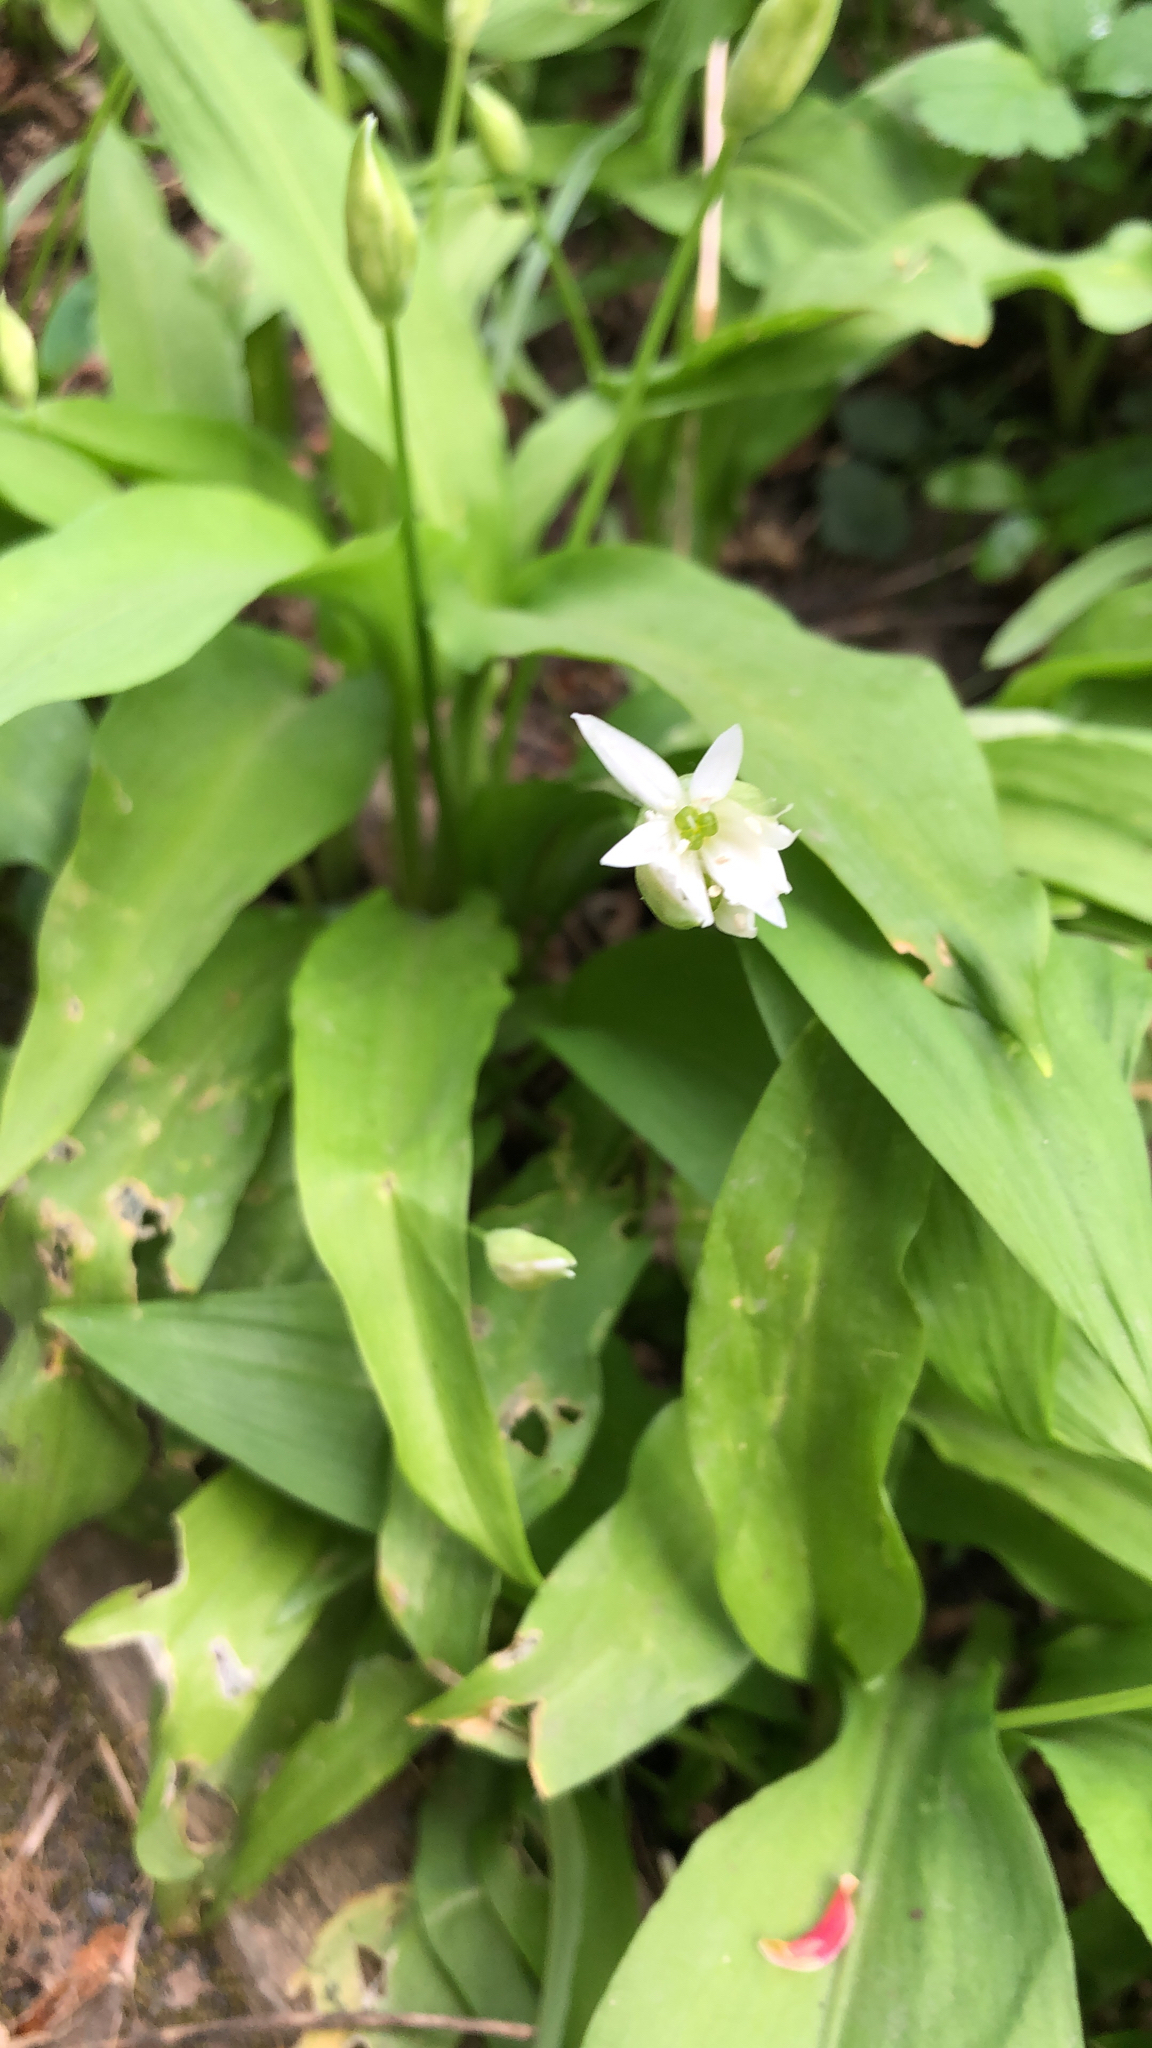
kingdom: Plantae
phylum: Tracheophyta
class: Liliopsida
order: Asparagales
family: Amaryllidaceae
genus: Allium
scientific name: Allium ursinum
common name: Ramsons
